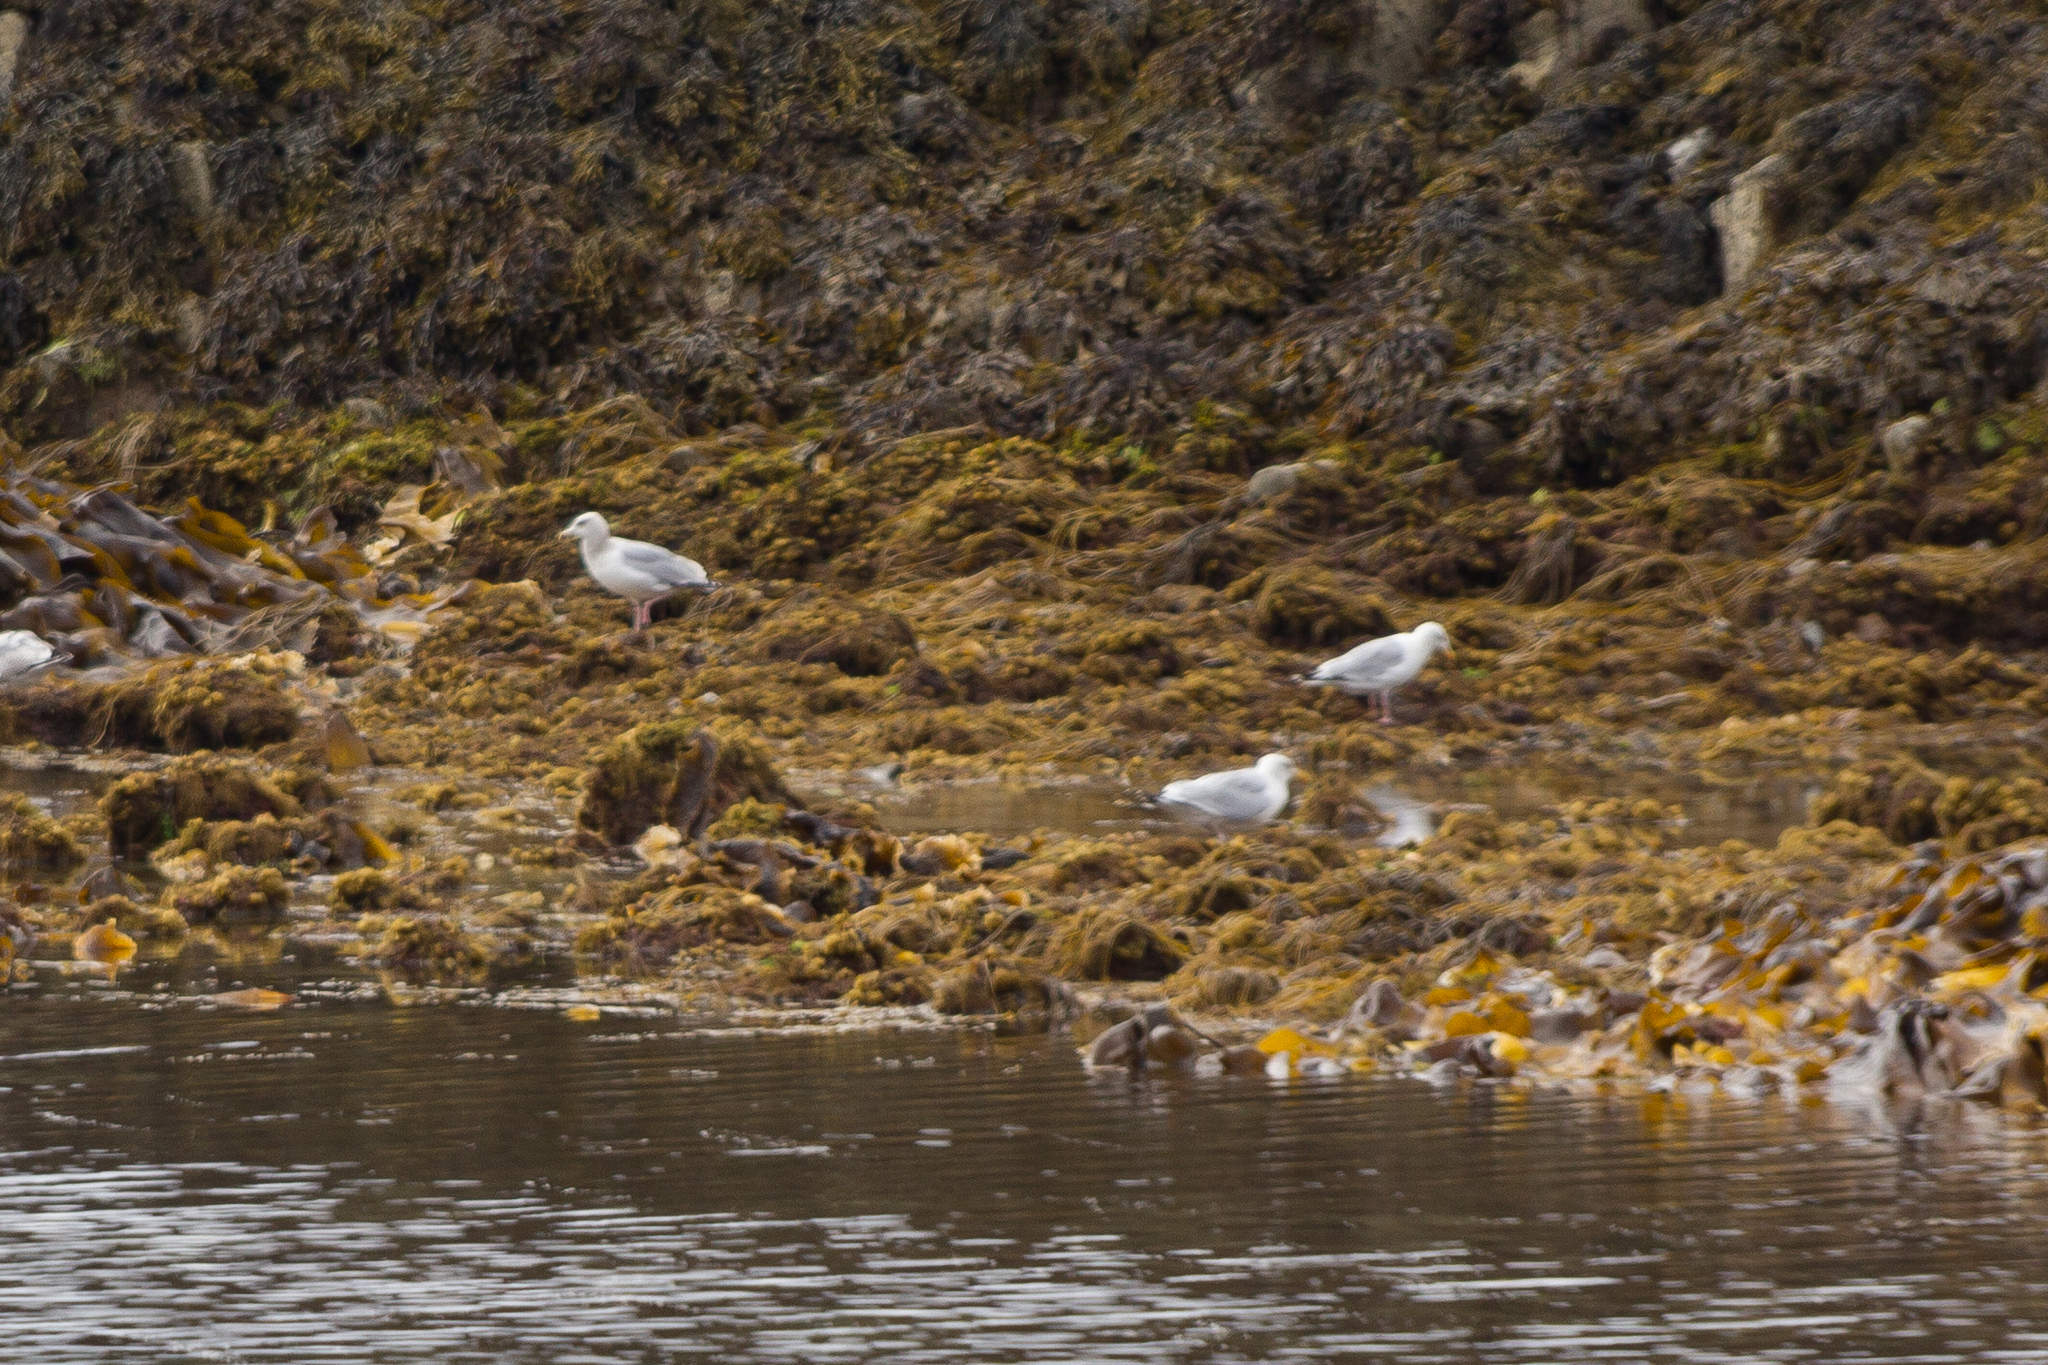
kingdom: Animalia
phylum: Chordata
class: Aves
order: Charadriiformes
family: Laridae
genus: Larus
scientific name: Larus argentatus
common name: Herring gull
